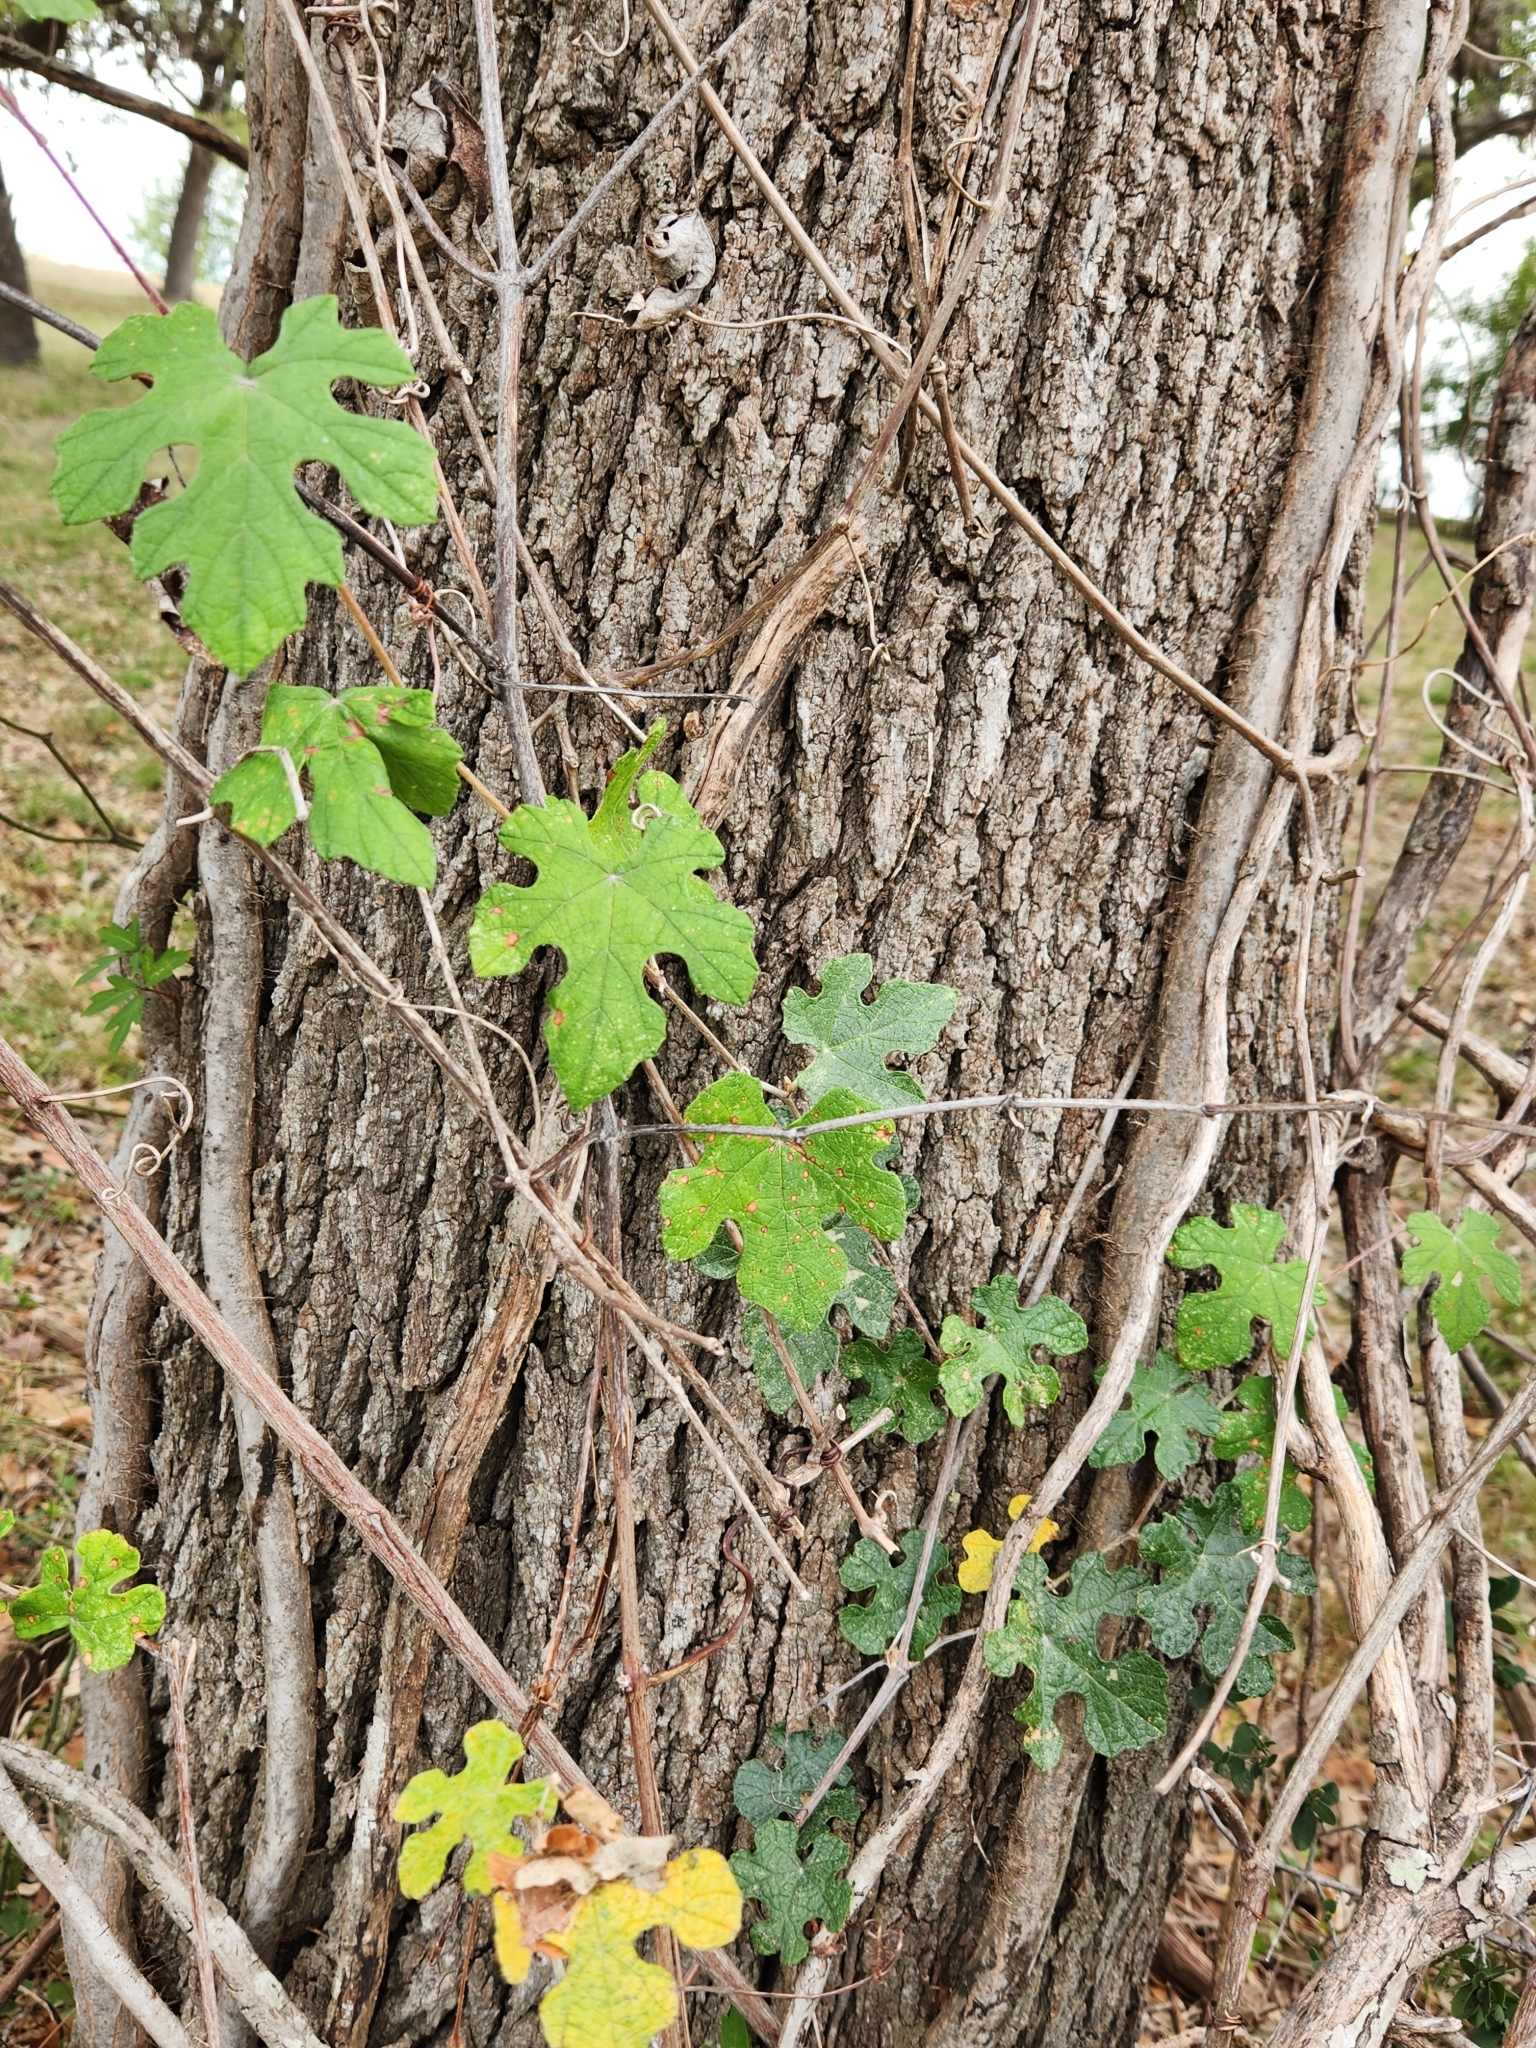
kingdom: Plantae
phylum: Tracheophyta
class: Magnoliopsida
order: Vitales
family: Vitaceae
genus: Vitis
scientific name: Vitis mustangensis
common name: Mustang grape
